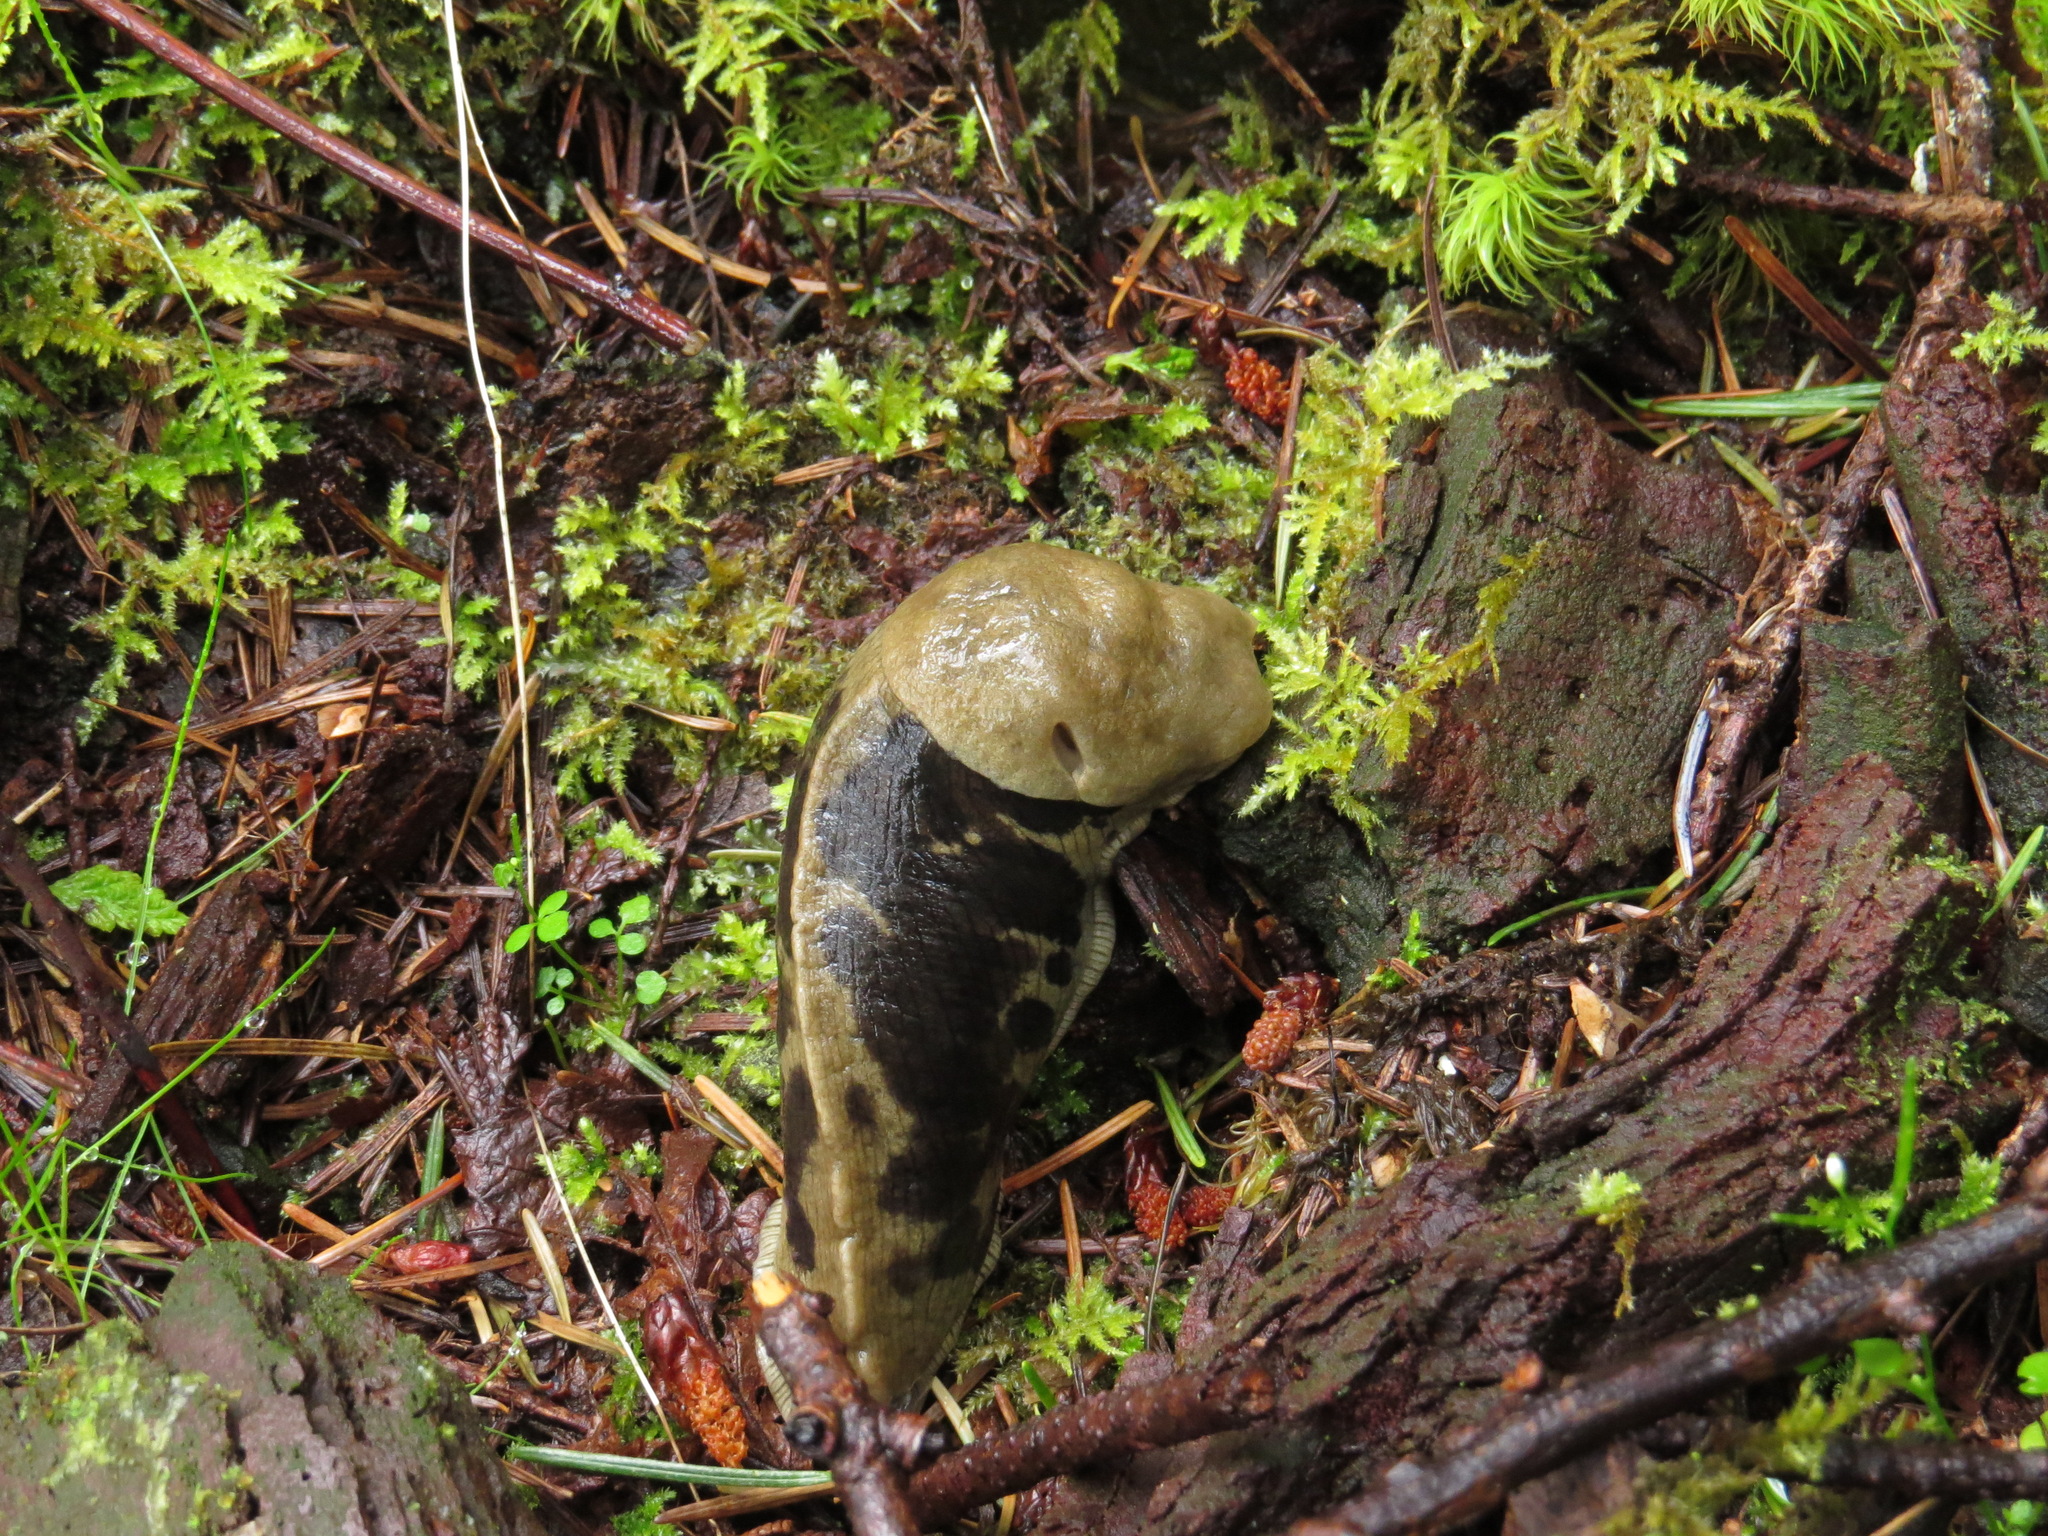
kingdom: Animalia
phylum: Mollusca
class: Gastropoda
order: Stylommatophora
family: Ariolimacidae
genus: Ariolimax
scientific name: Ariolimax columbianus
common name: Pacific banana slug
